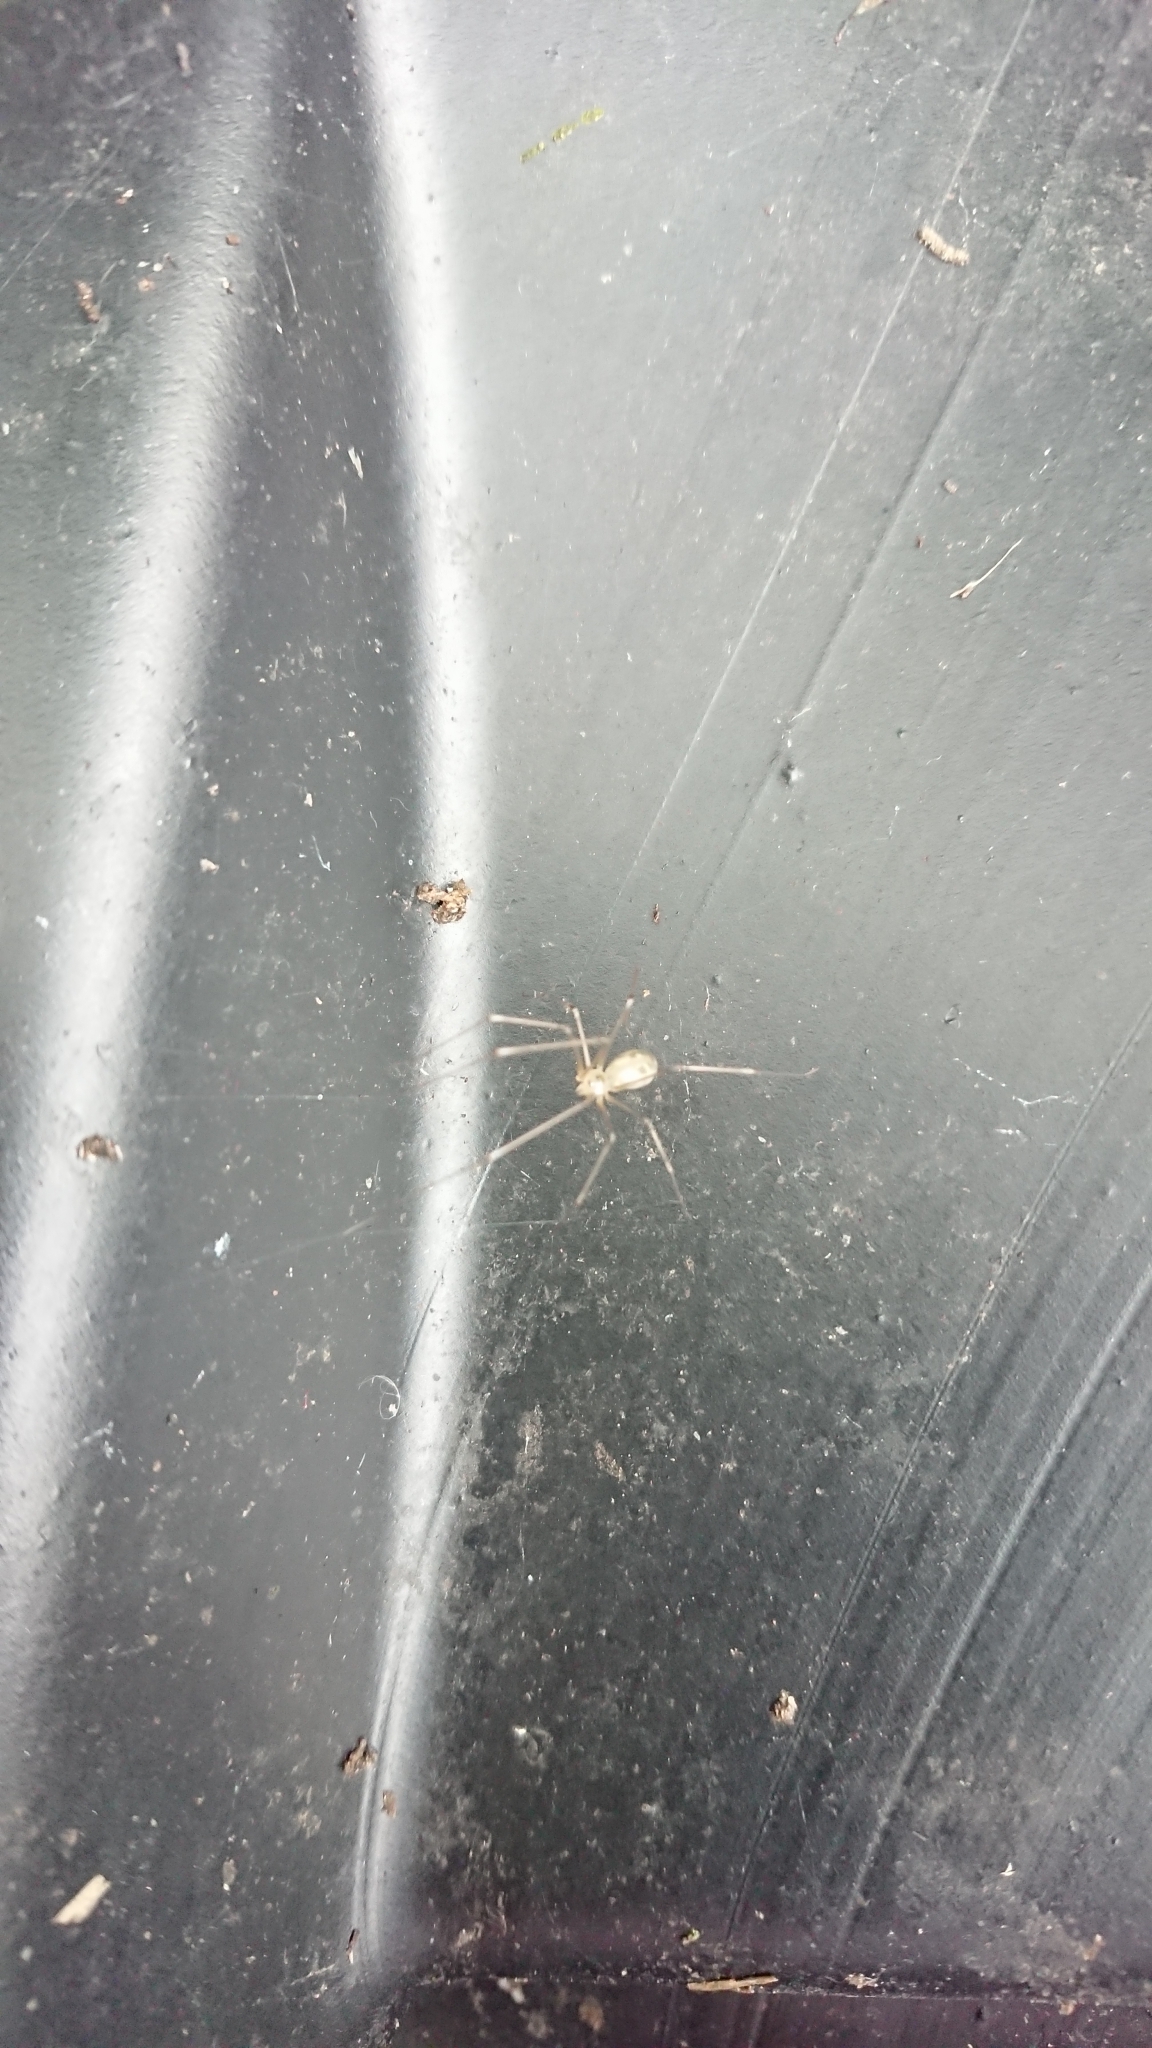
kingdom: Animalia
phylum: Arthropoda
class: Arachnida
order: Araneae
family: Pholcidae
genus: Pholcus
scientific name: Pholcus phalangioides
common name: Longbodied cellar spider
